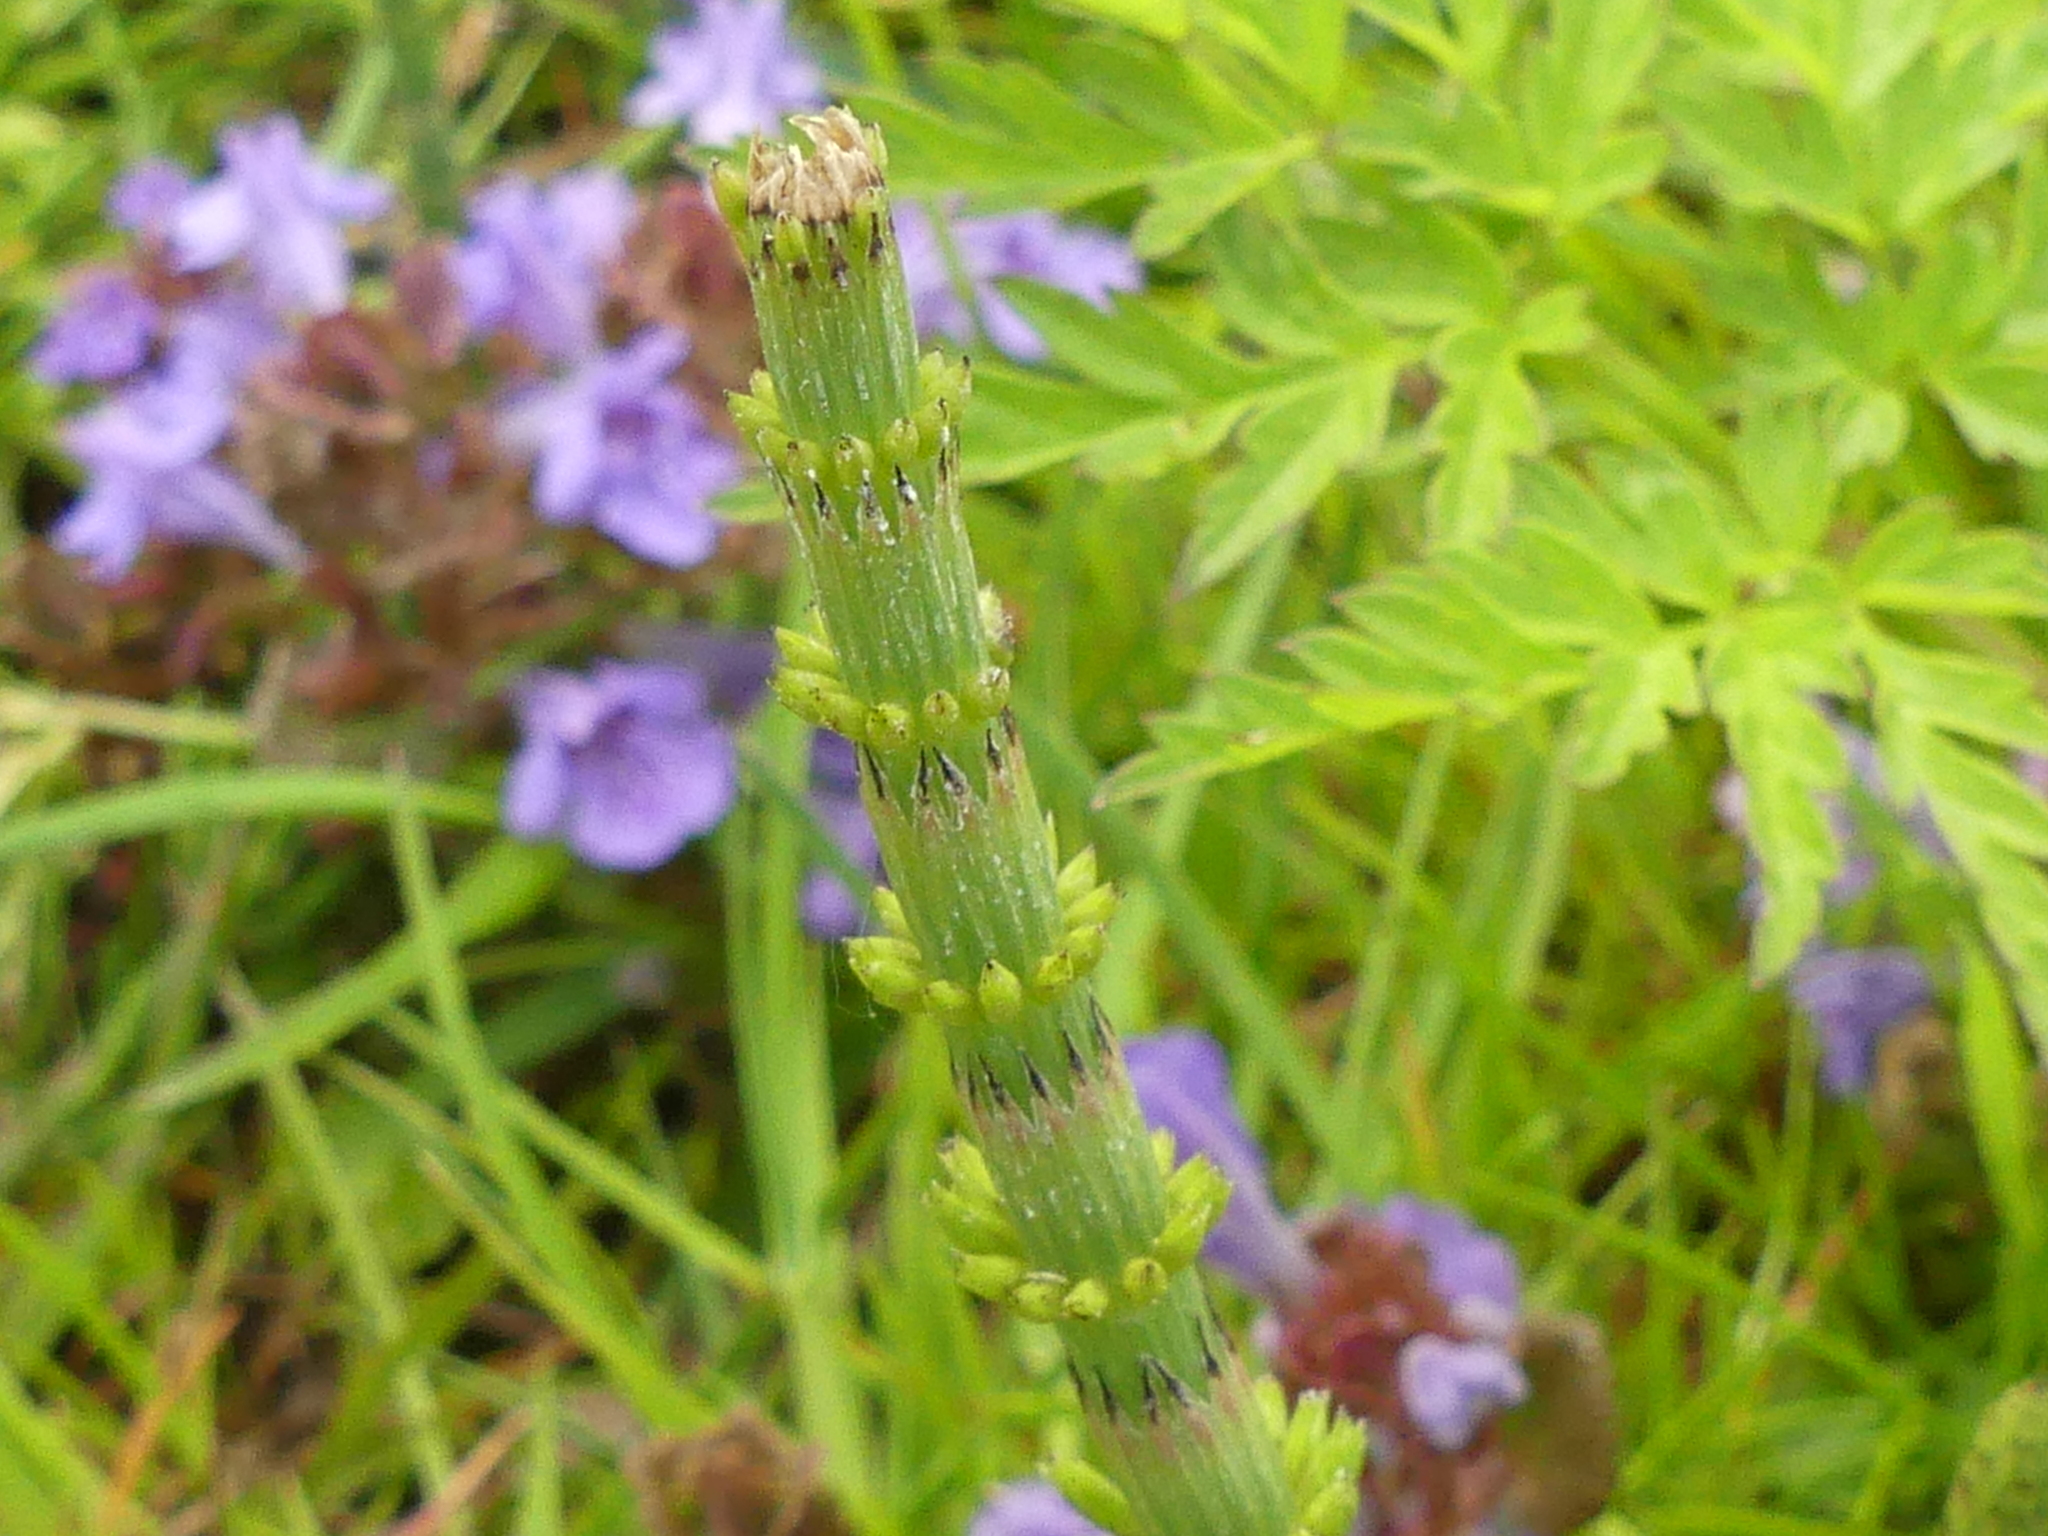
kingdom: Plantae
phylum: Tracheophyta
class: Polypodiopsida
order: Equisetales
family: Equisetaceae
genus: Equisetum
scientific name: Equisetum arvense
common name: Field horsetail
